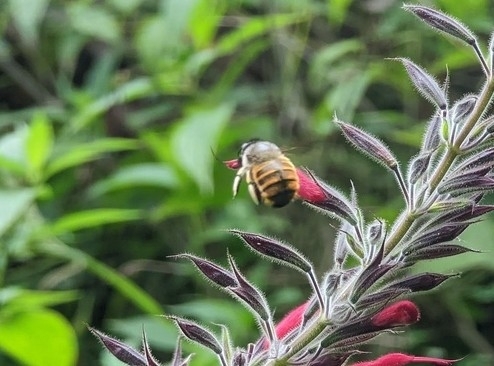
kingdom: Animalia
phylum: Arthropoda
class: Insecta
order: Hymenoptera
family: Apidae
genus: Xylocopa
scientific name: Xylocopa tabaniformis
